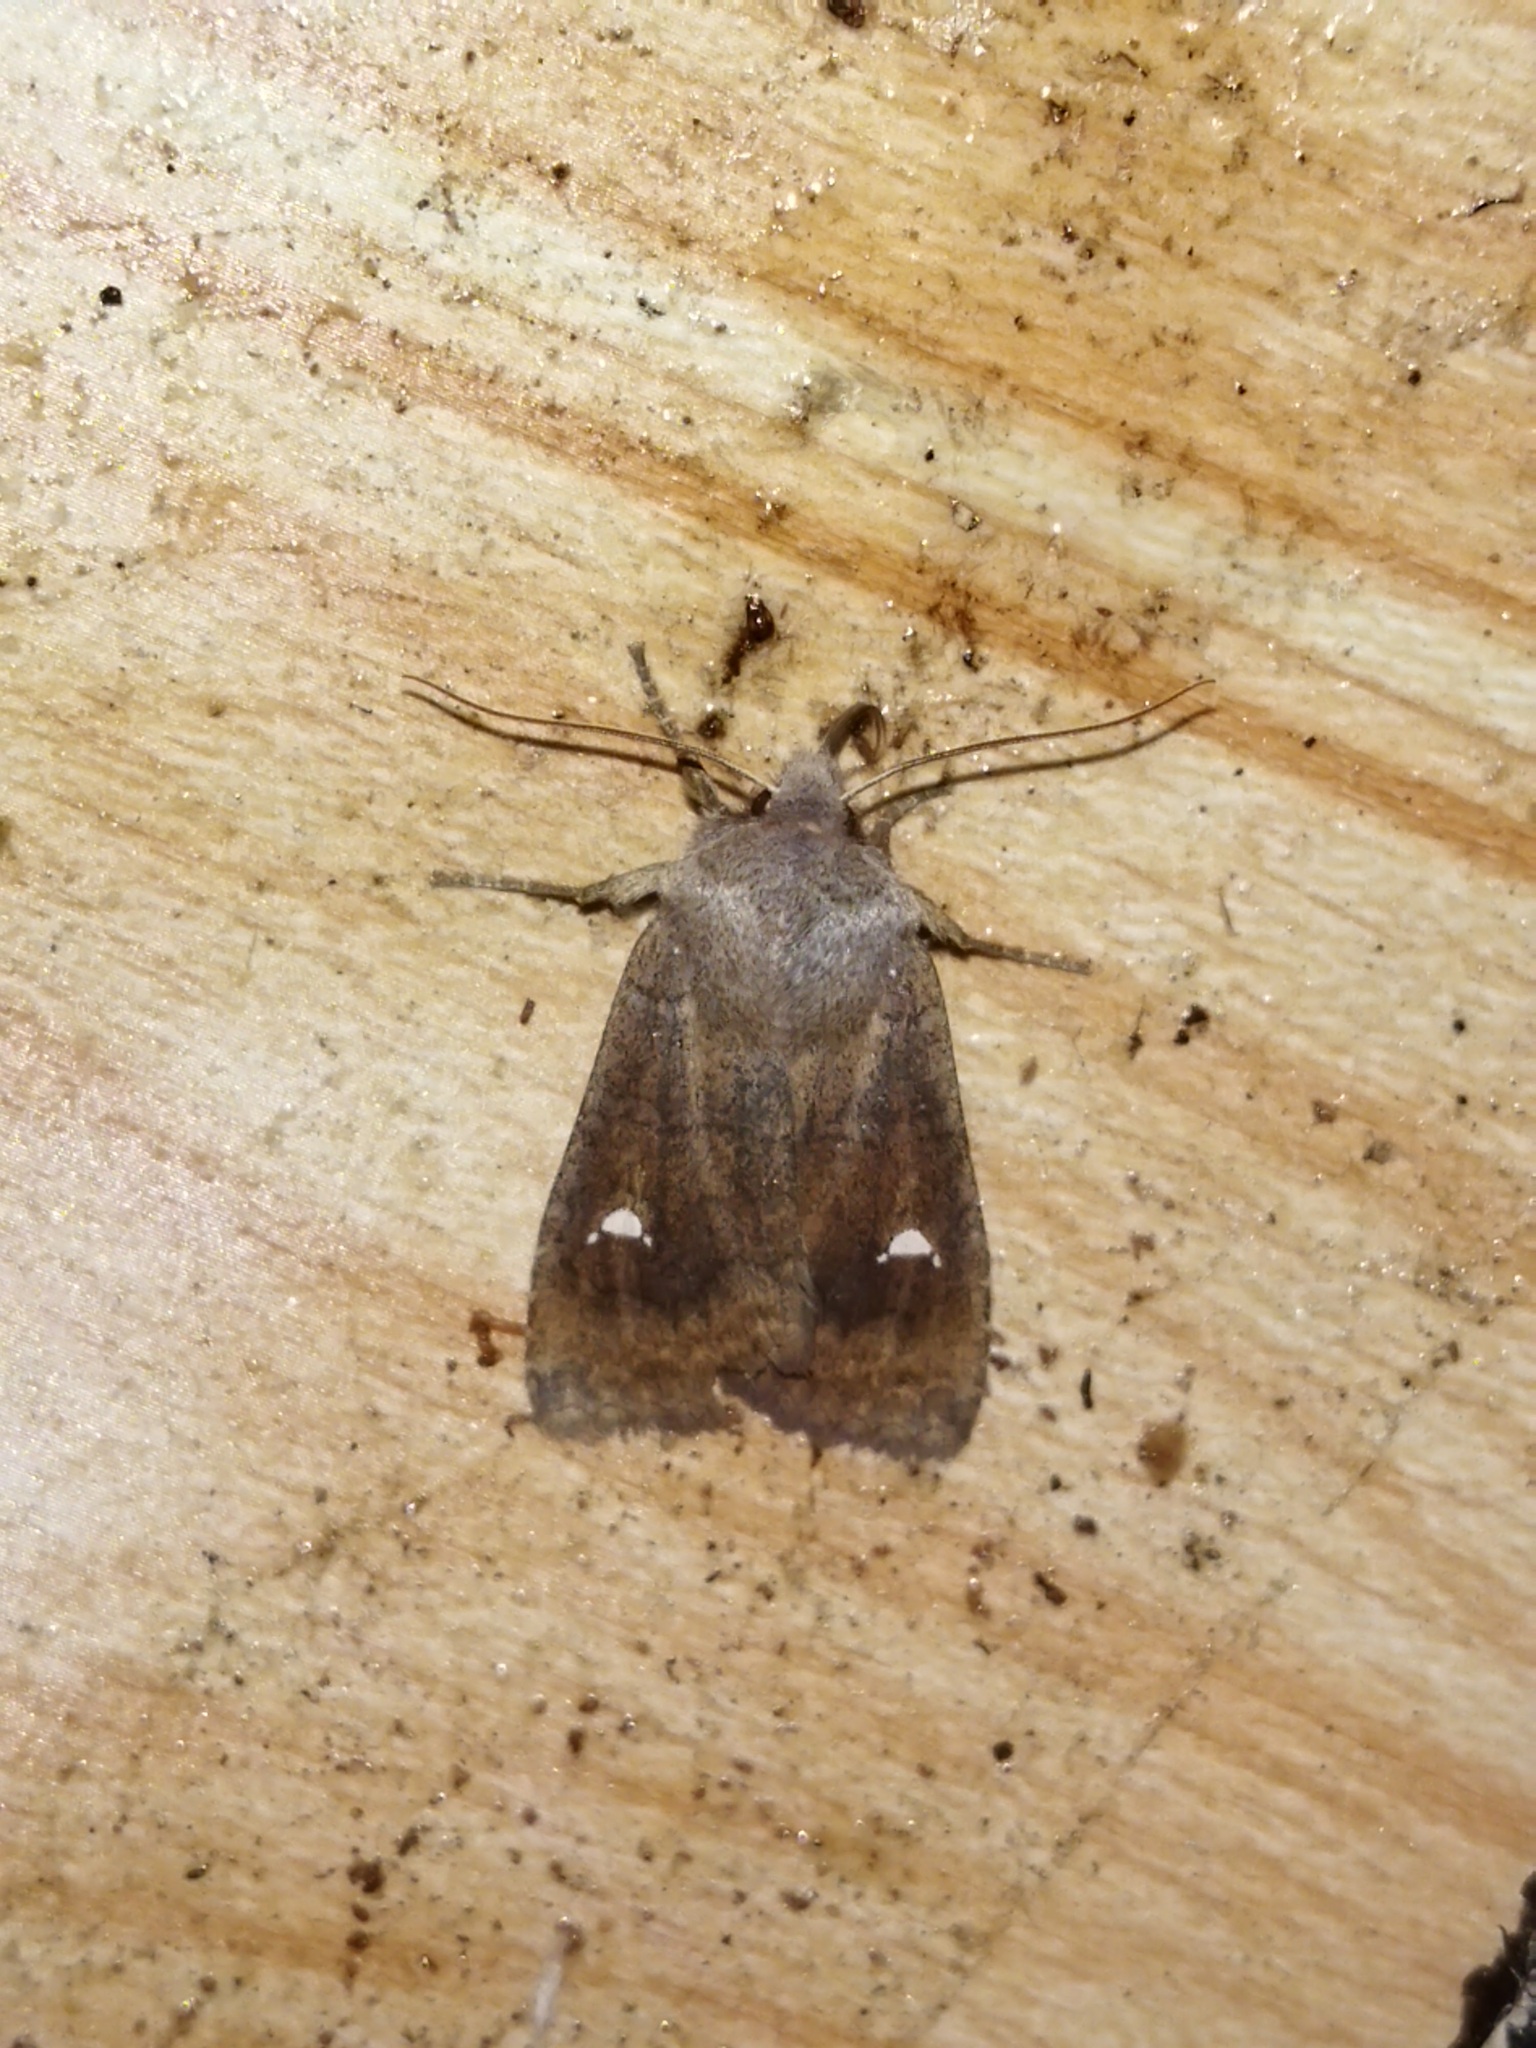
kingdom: Animalia
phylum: Arthropoda
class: Insecta
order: Lepidoptera
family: Noctuidae
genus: Eupsilia
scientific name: Eupsilia transversa
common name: Satellite
